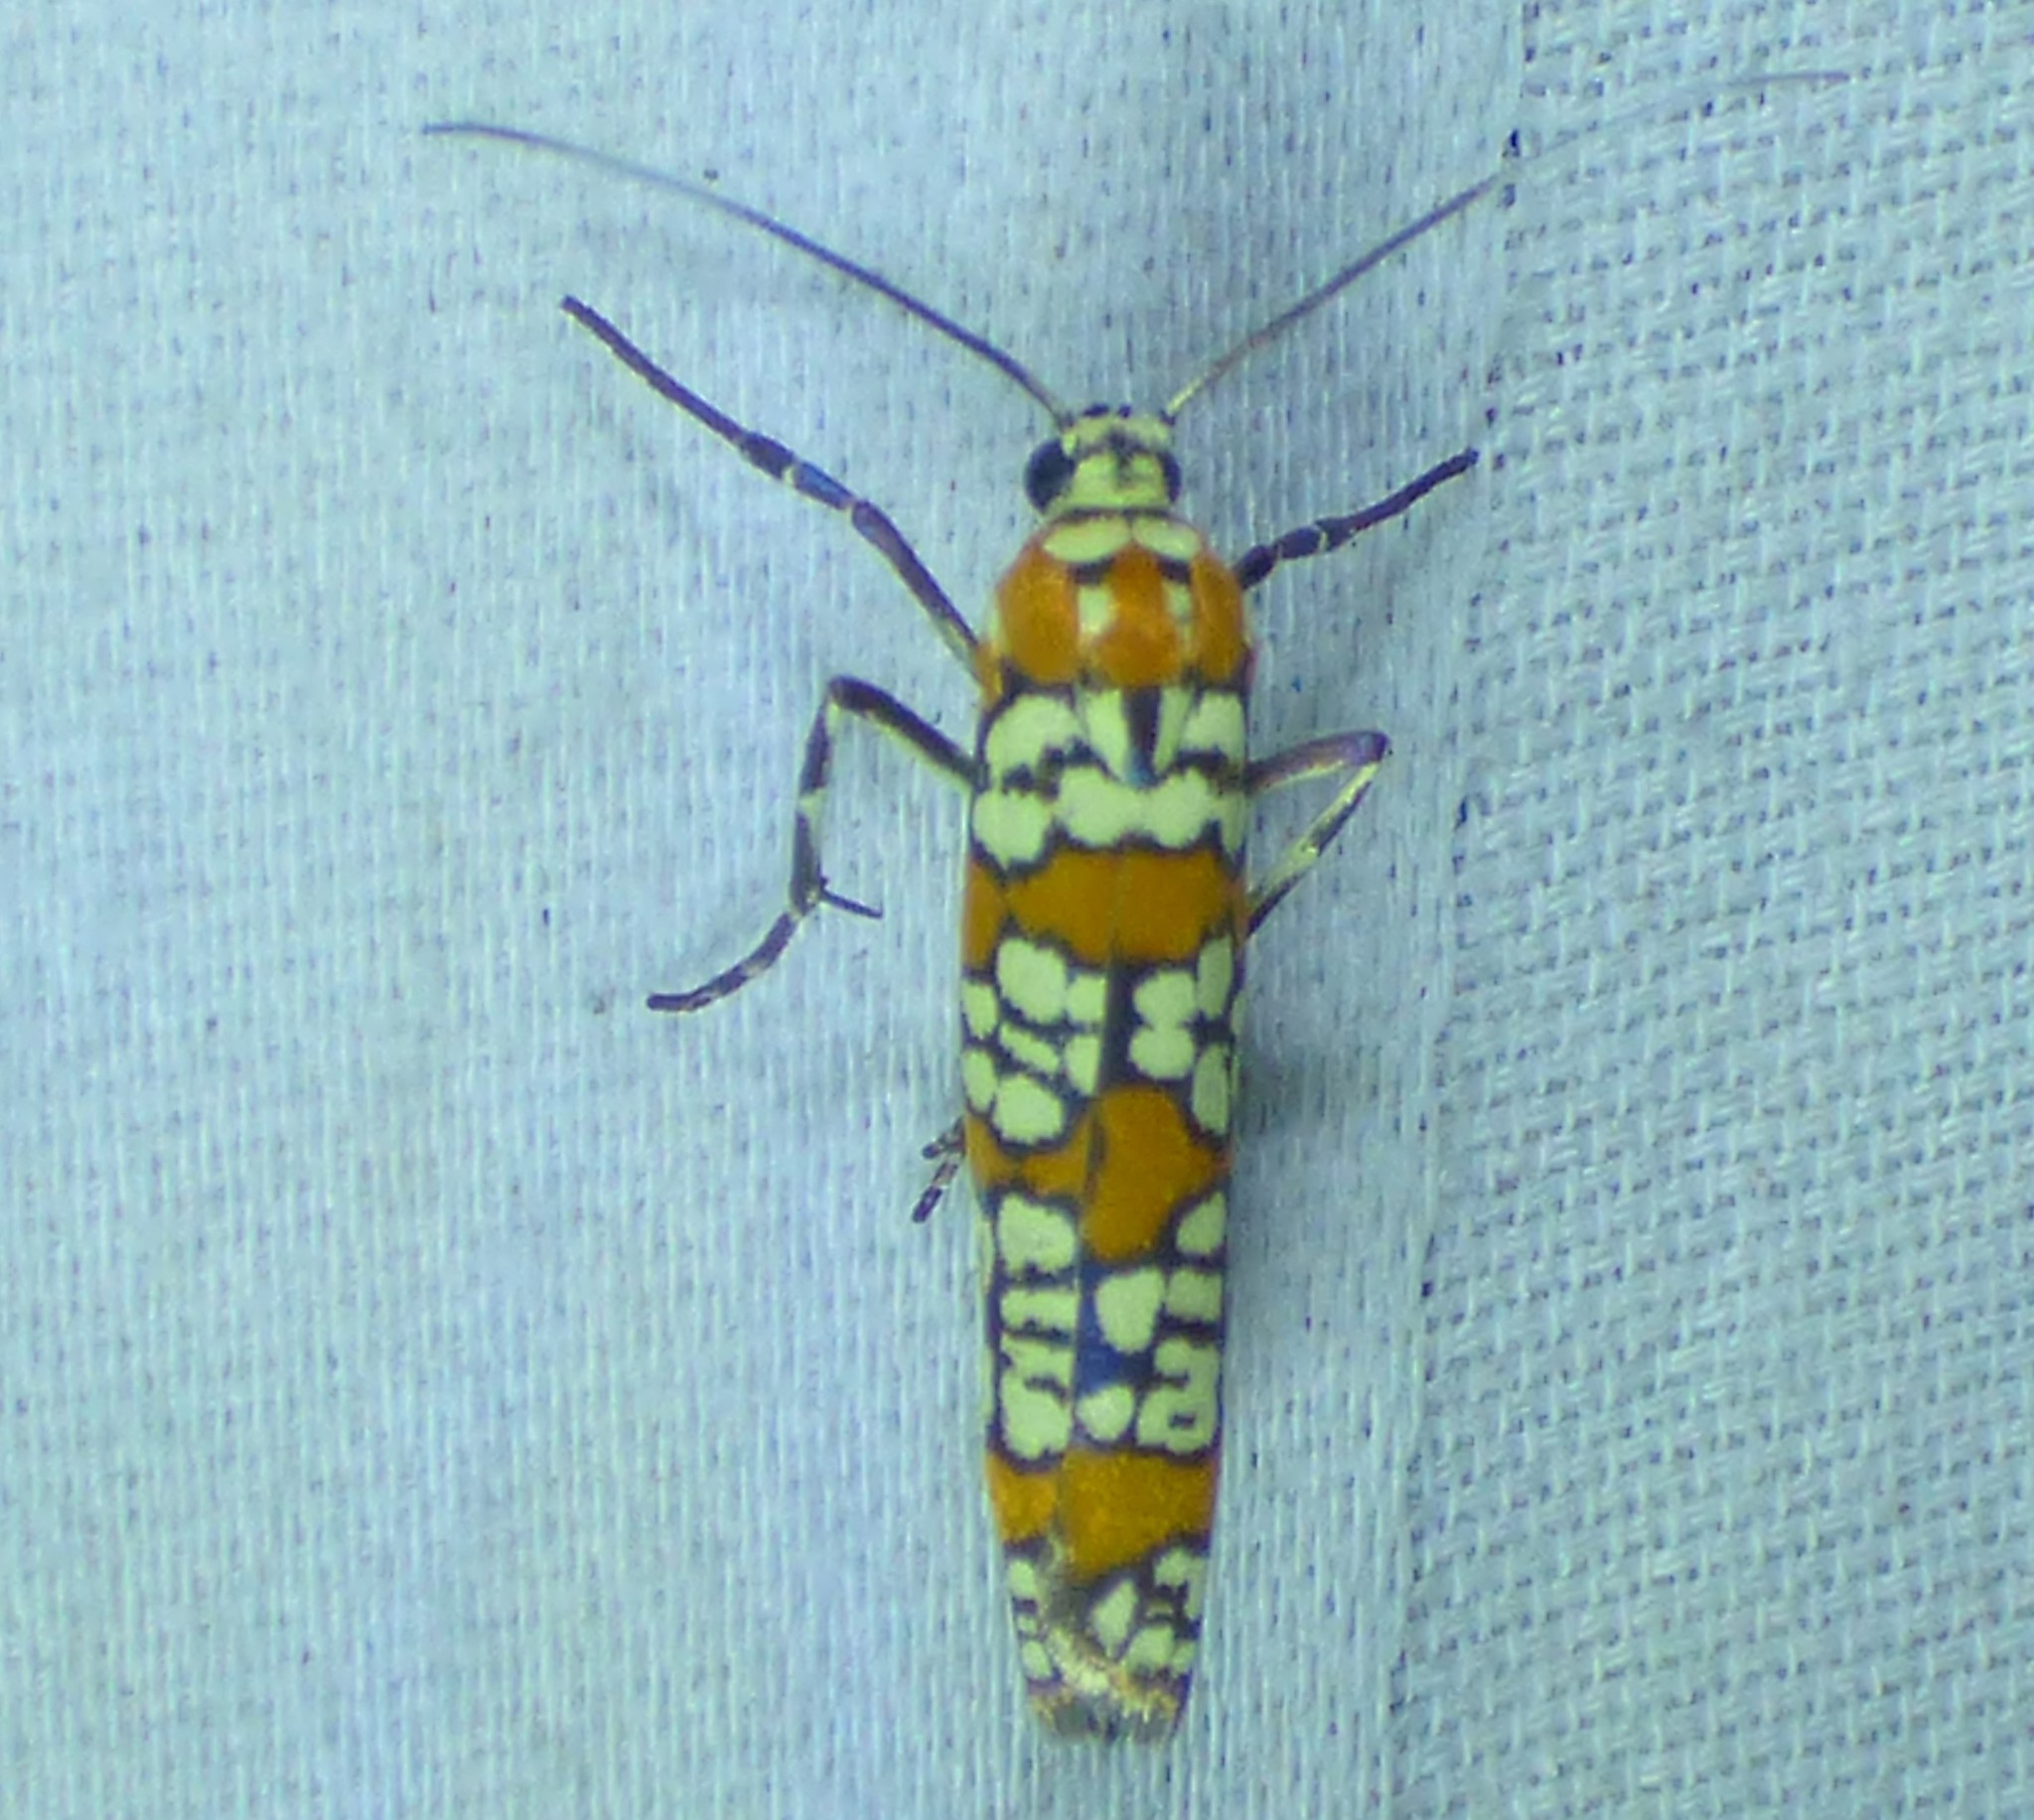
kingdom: Animalia
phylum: Arthropoda
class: Insecta
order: Lepidoptera
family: Attevidae
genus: Atteva
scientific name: Atteva punctella
